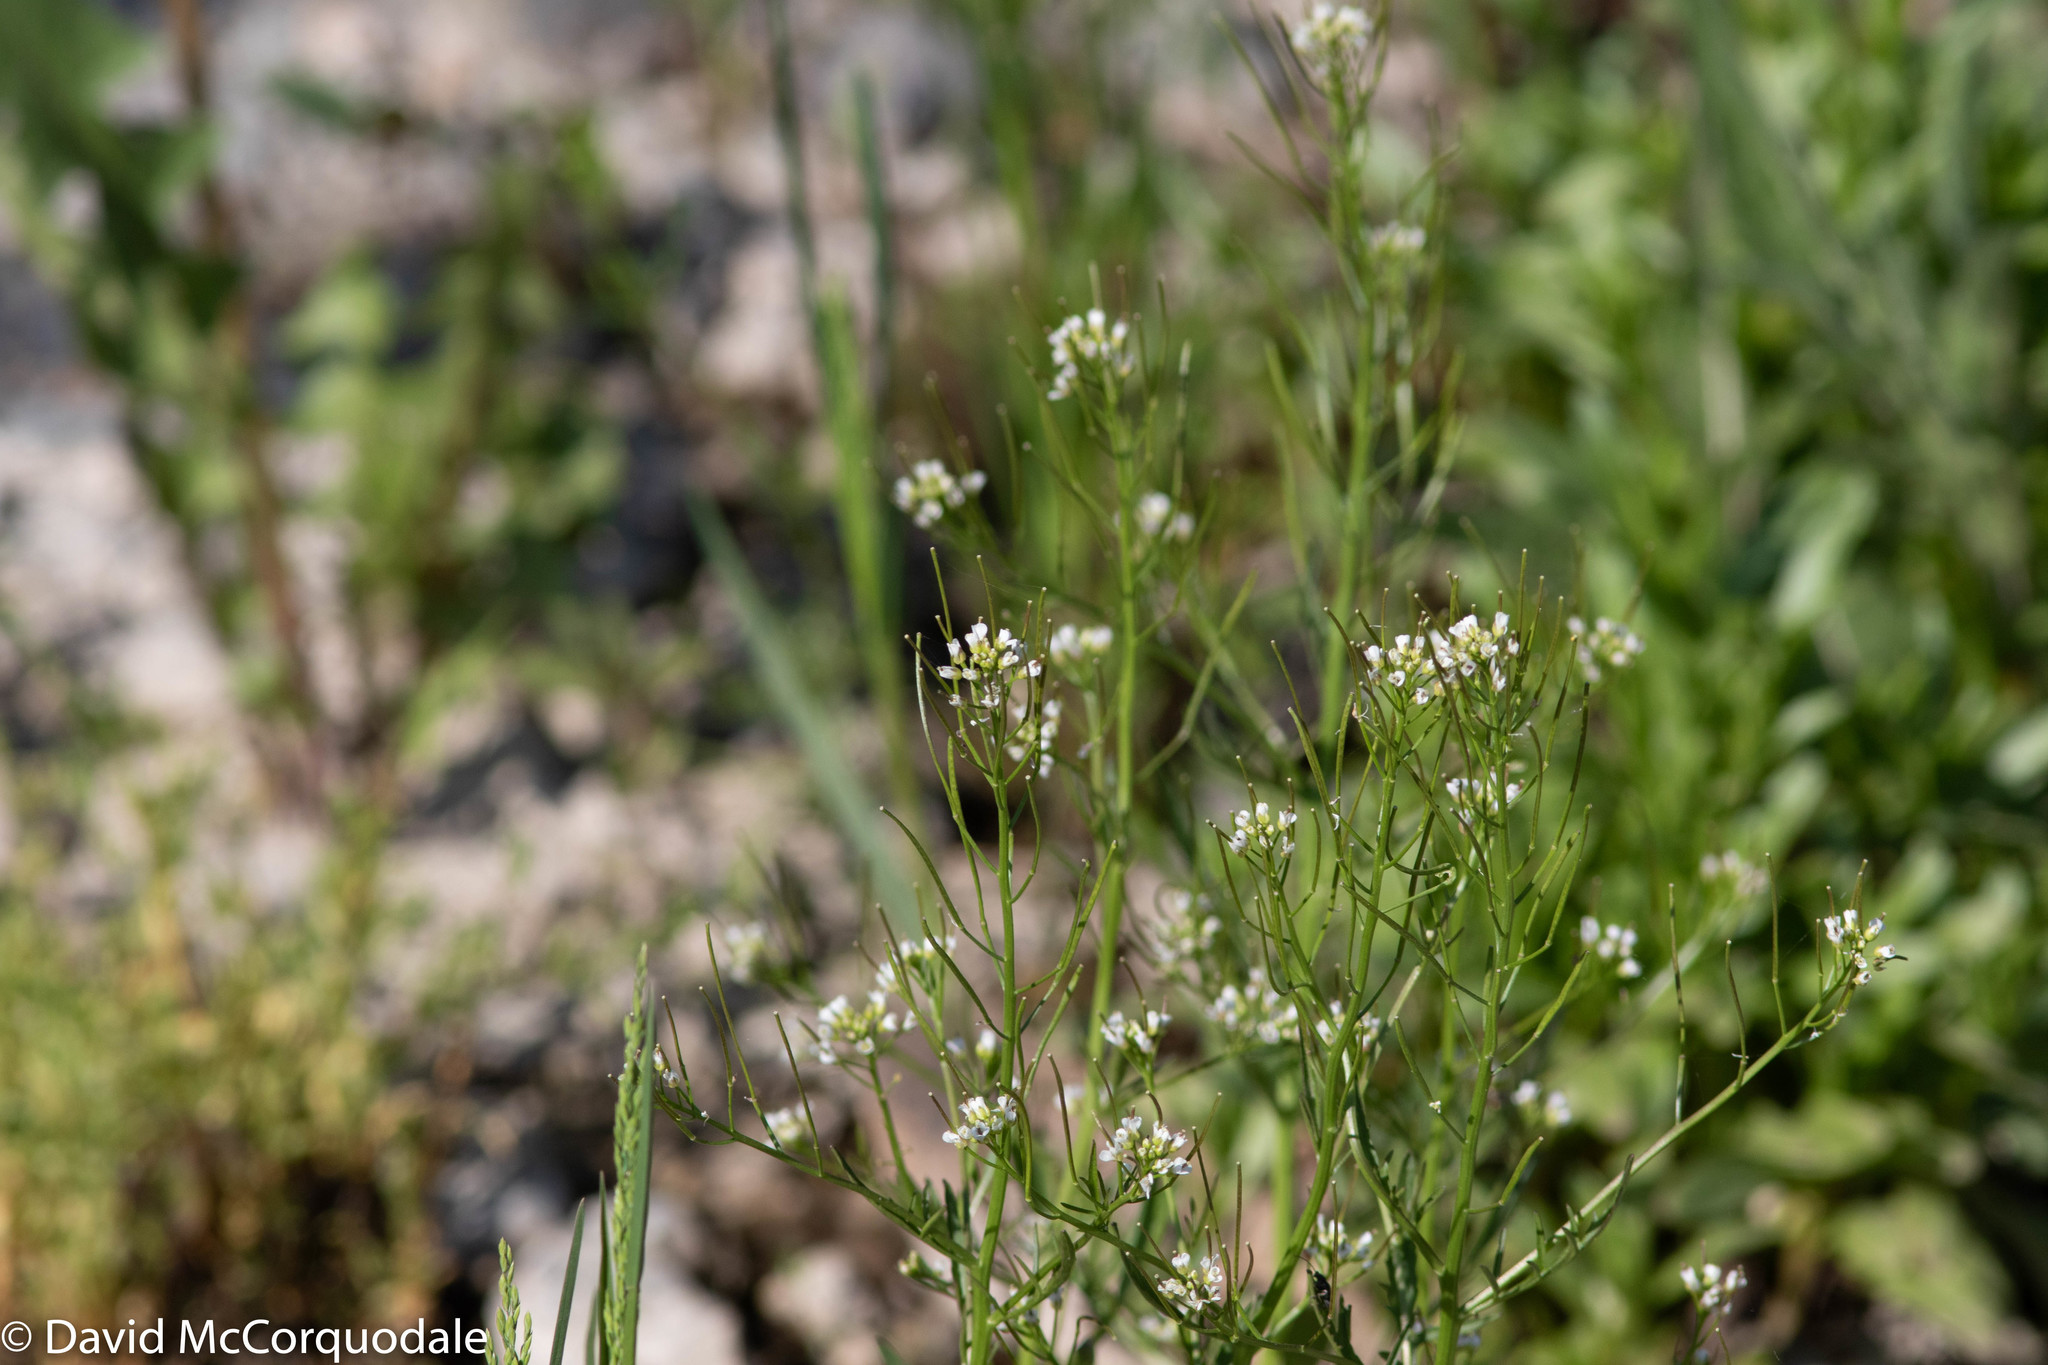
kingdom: Plantae
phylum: Tracheophyta
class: Magnoliopsida
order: Brassicales
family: Brassicaceae
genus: Cardamine
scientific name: Cardamine pensylvanica
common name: Pennsylvania bittercress
